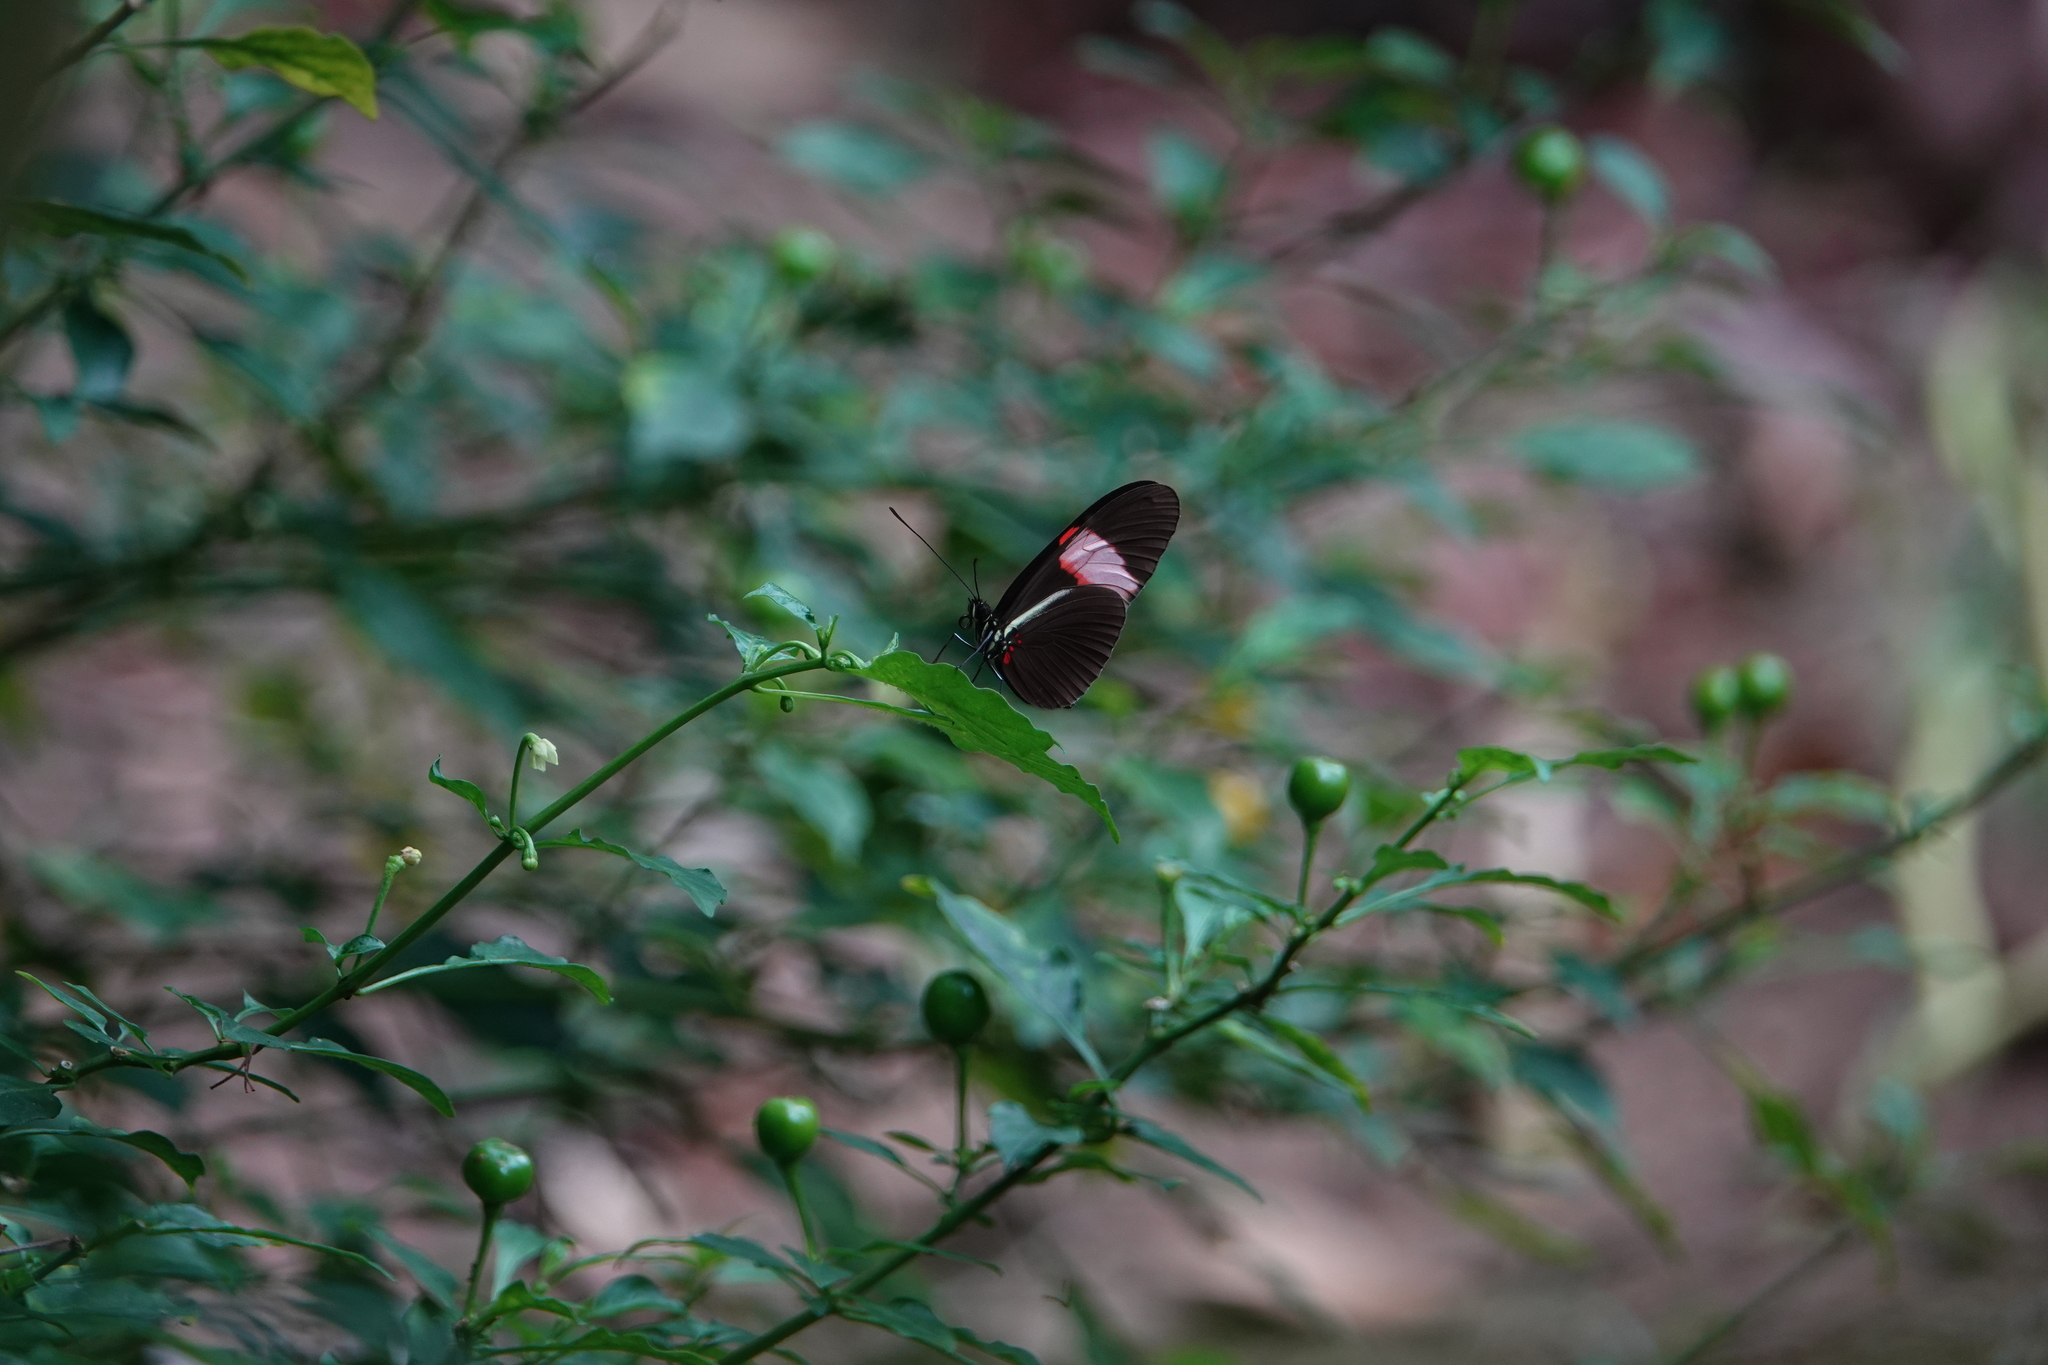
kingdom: Animalia
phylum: Arthropoda
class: Insecta
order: Lepidoptera
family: Nymphalidae
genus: Heliconius
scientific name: Heliconius erato
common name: Common patch longwing
